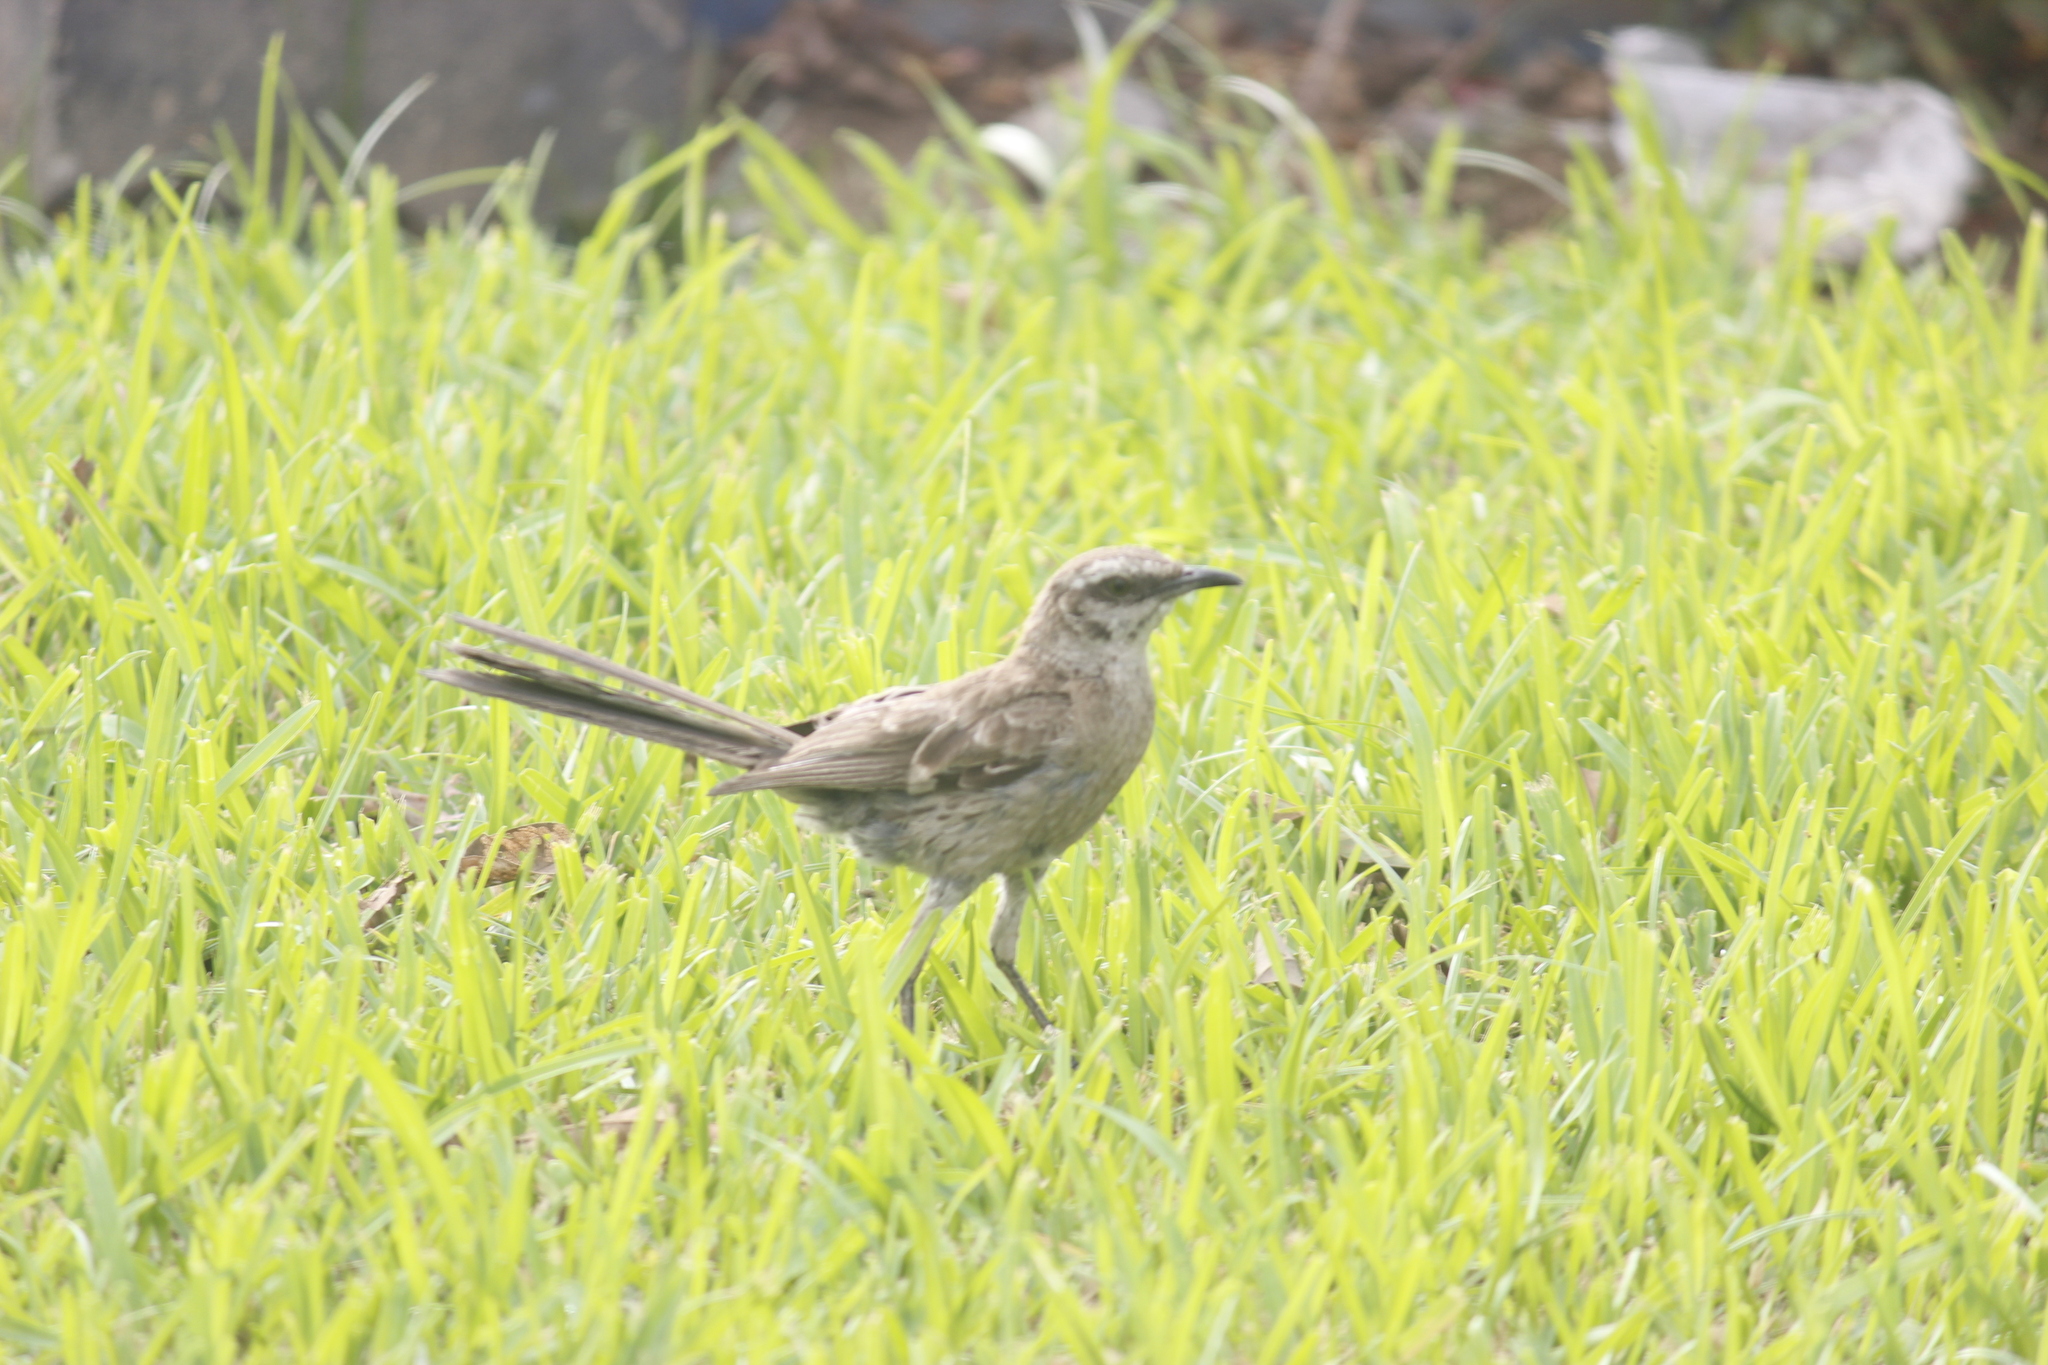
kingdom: Animalia
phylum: Chordata
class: Aves
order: Passeriformes
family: Mimidae
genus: Mimus
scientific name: Mimus longicaudatus
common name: Long-tailed mockingbird
